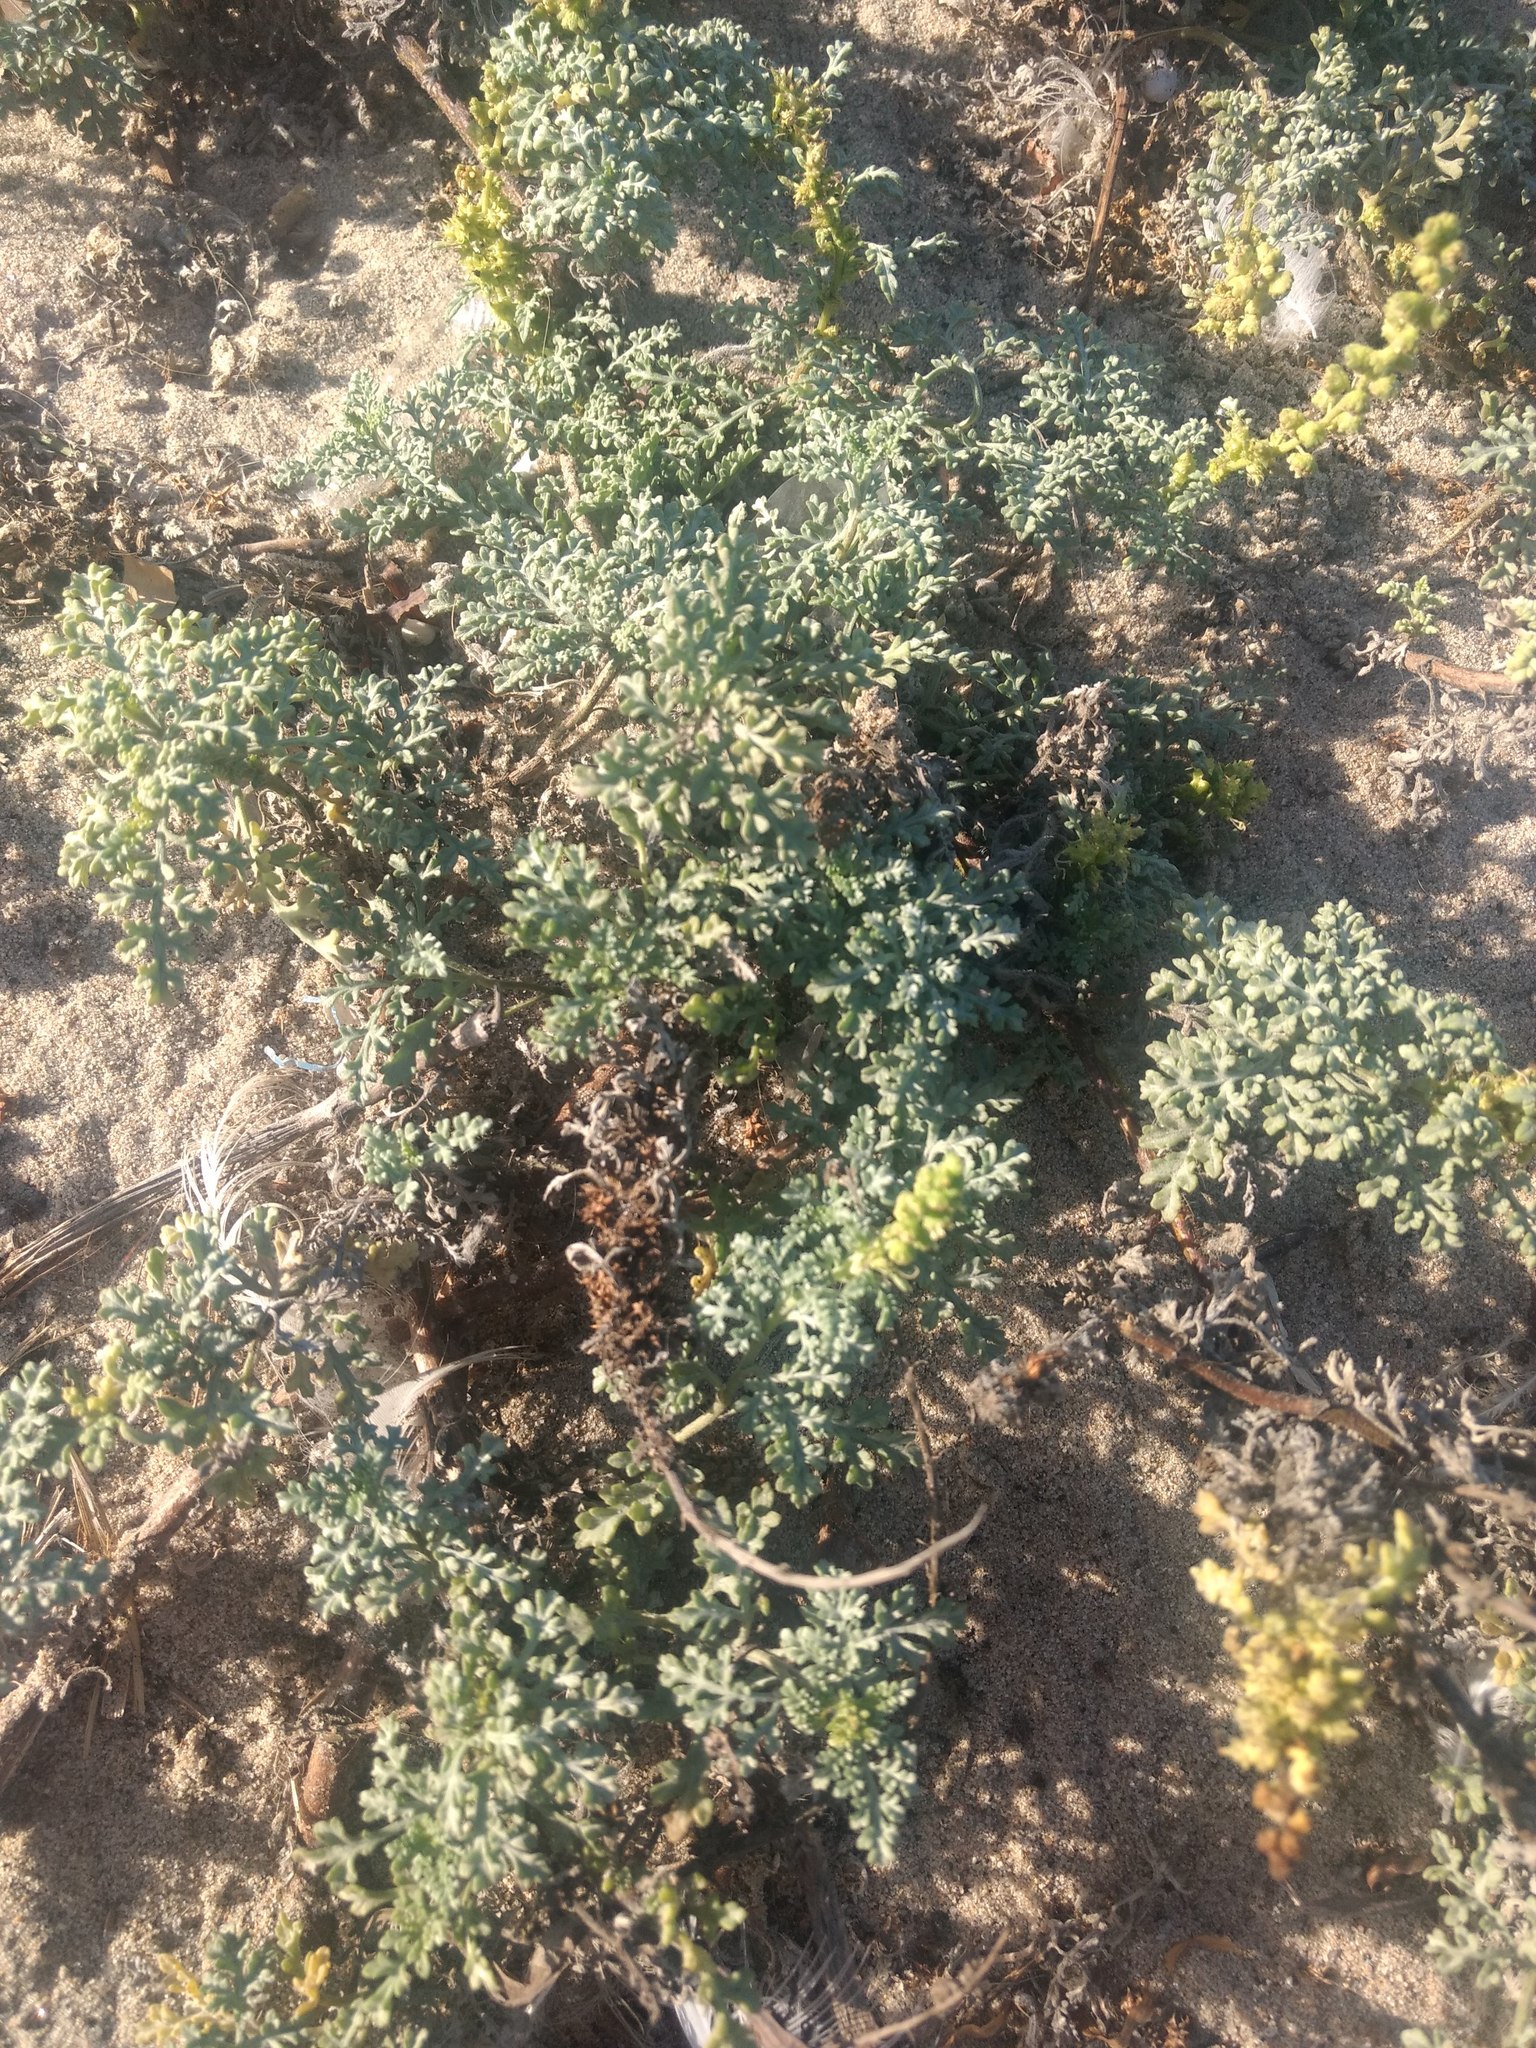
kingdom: Plantae
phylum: Tracheophyta
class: Magnoliopsida
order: Asterales
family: Asteraceae
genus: Ambrosia
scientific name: Ambrosia chamissonis
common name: Beachbur
